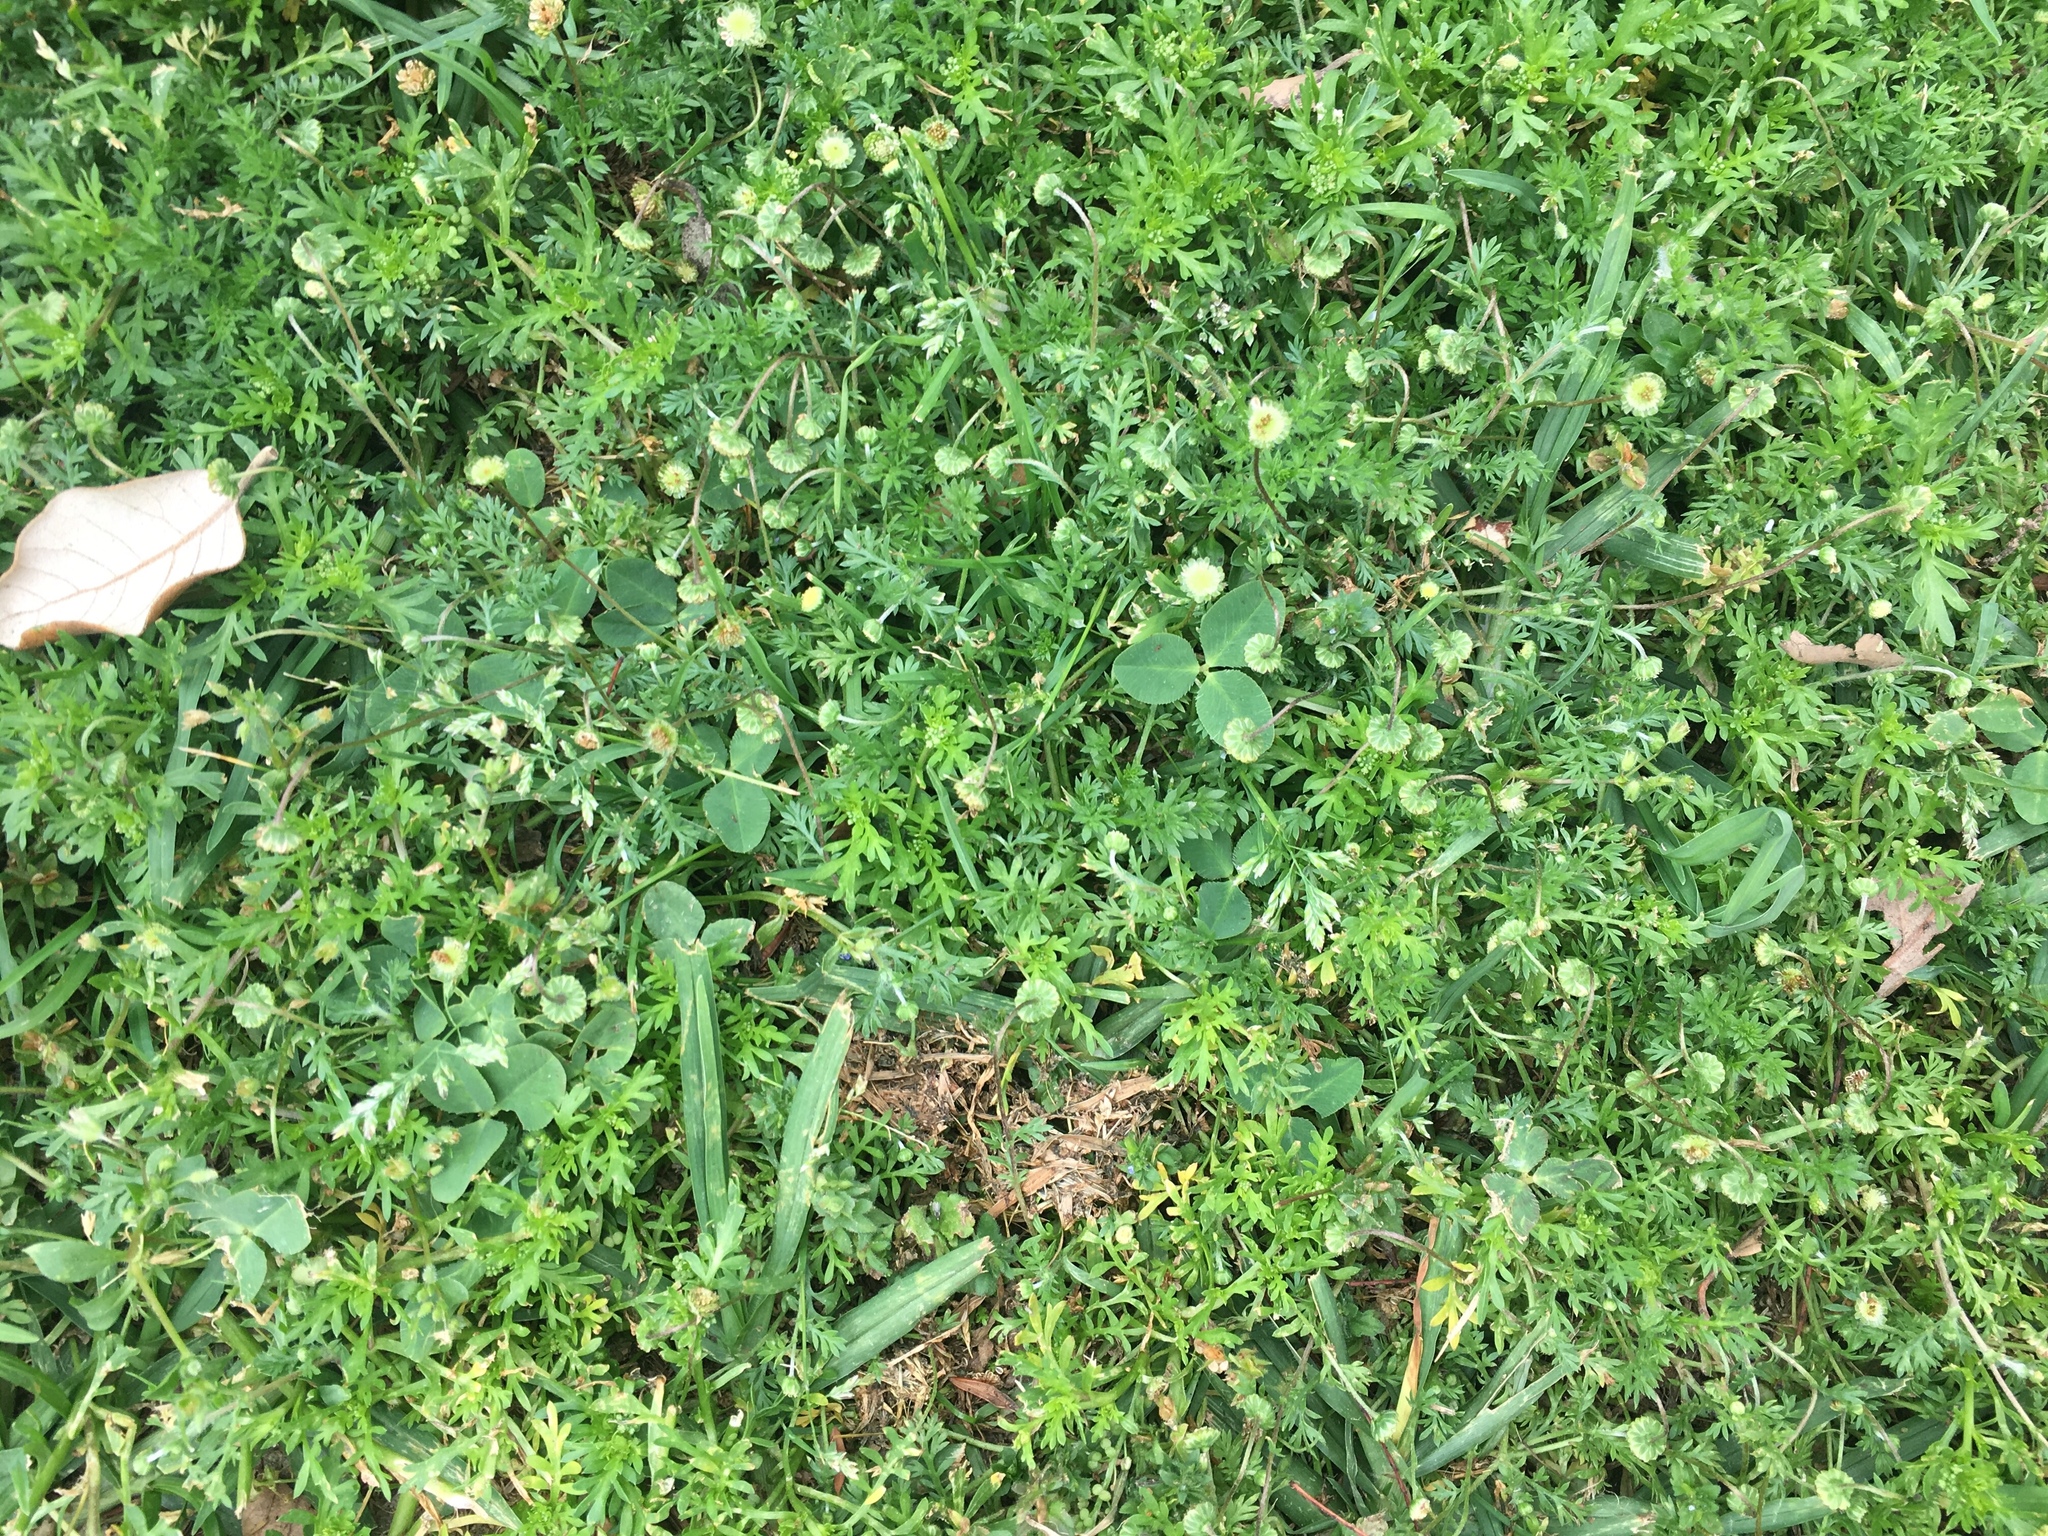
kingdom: Plantae
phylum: Tracheophyta
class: Magnoliopsida
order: Asterales
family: Asteraceae
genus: Cotula
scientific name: Cotula australis
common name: Australian waterbuttons
